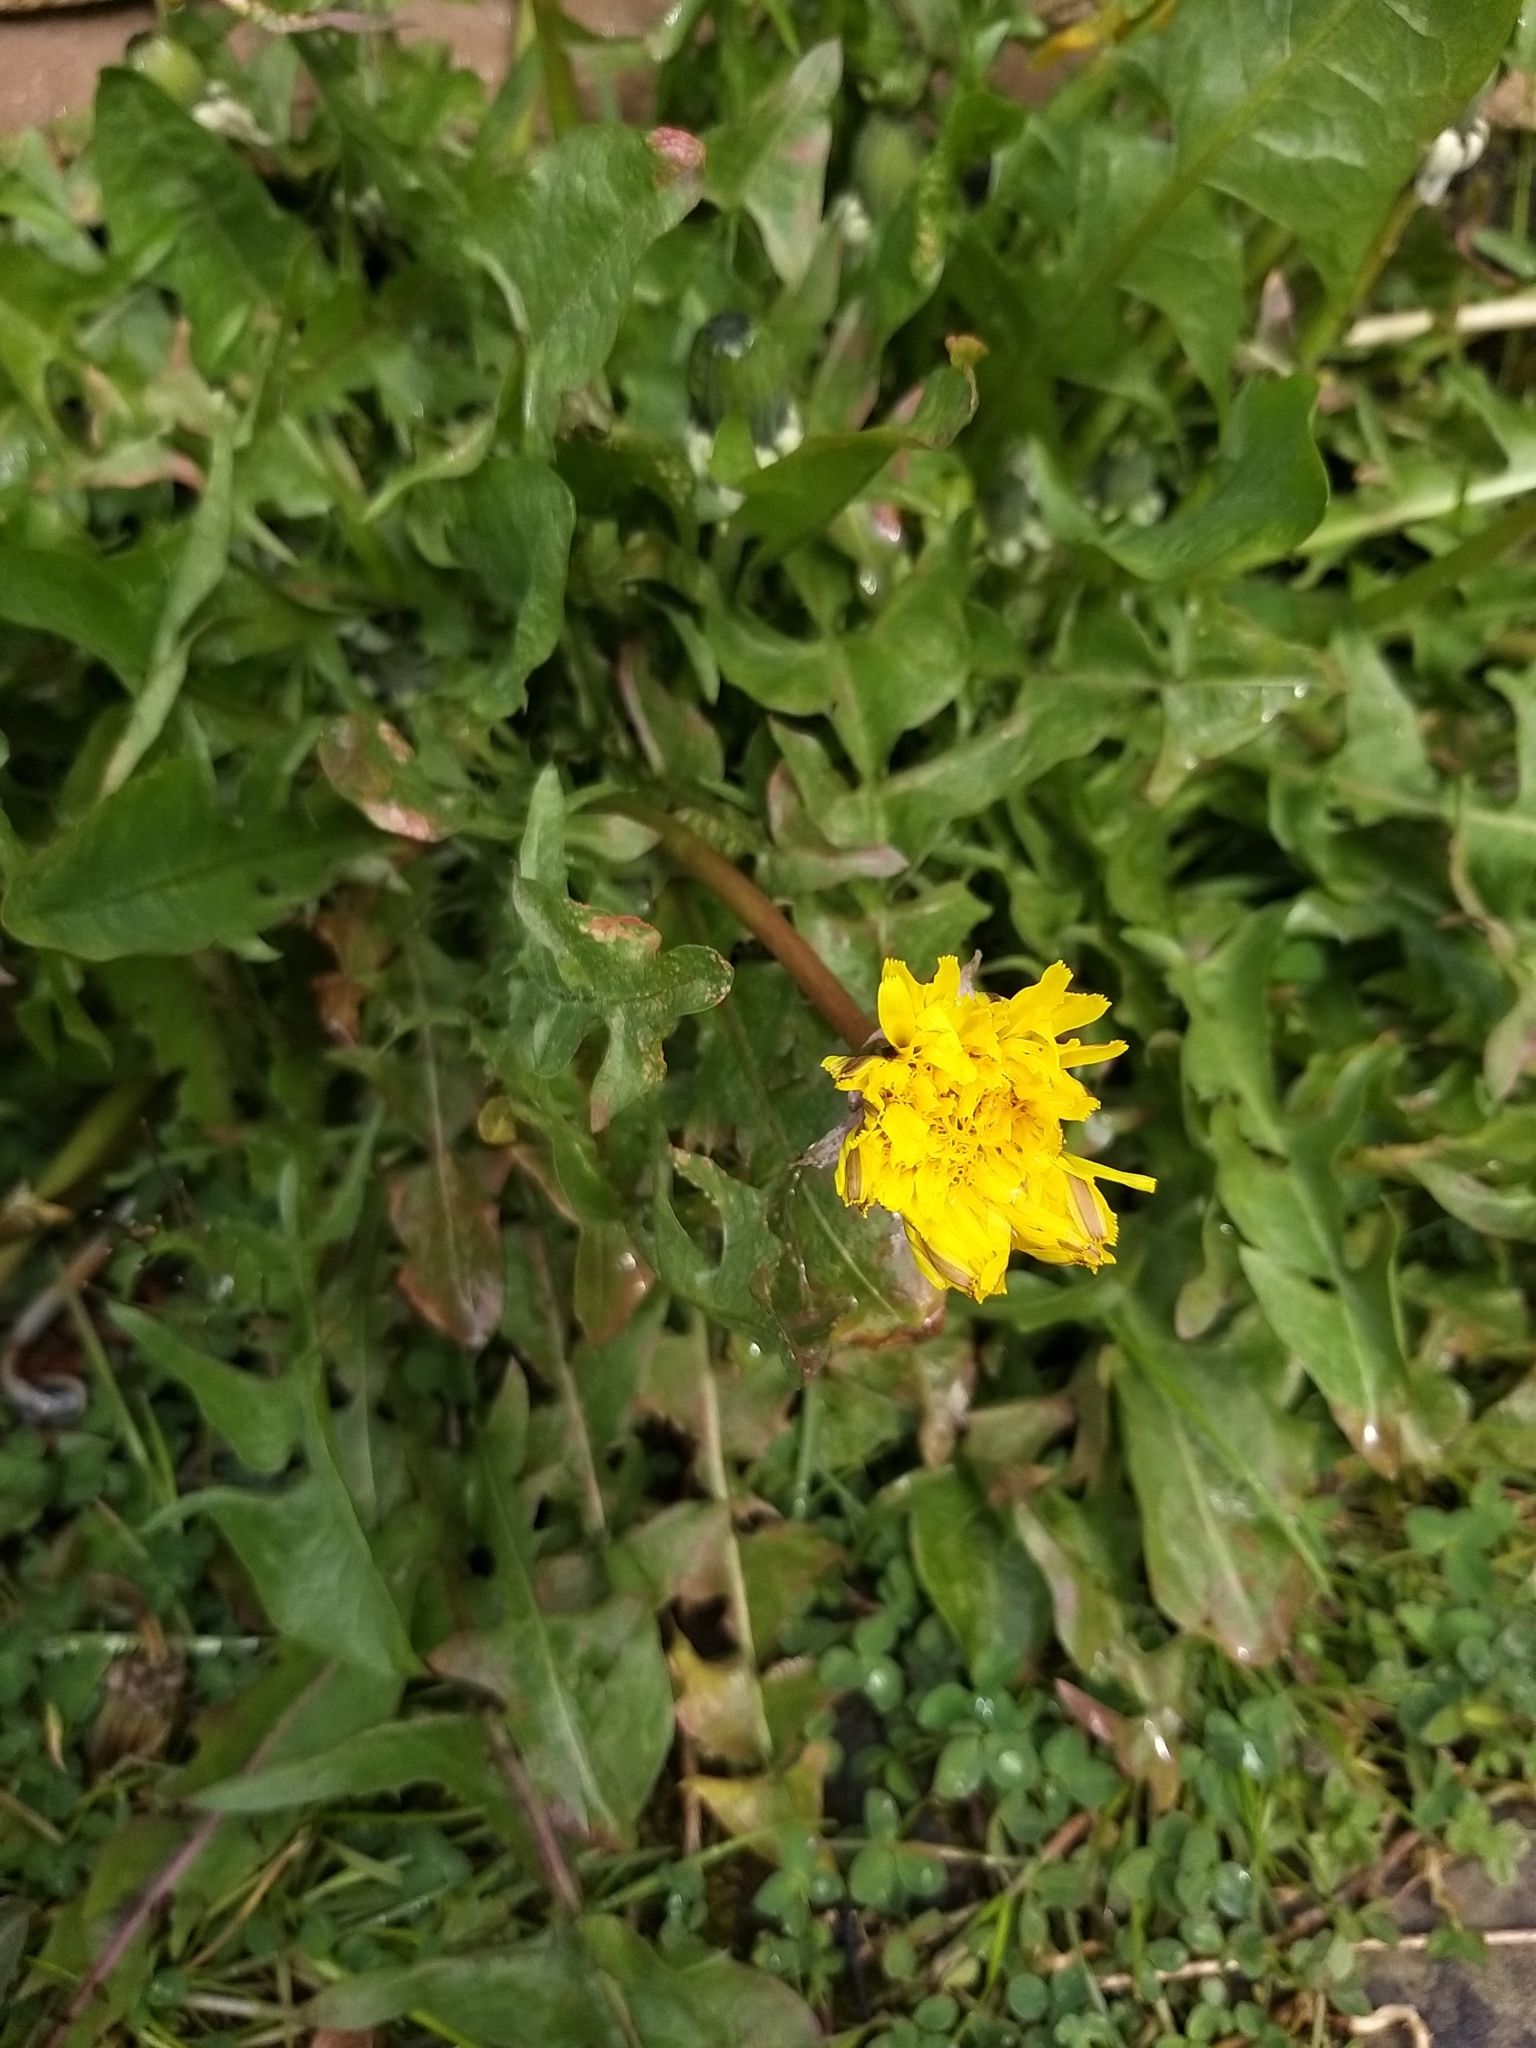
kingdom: Plantae
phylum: Tracheophyta
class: Magnoliopsida
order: Asterales
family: Asteraceae
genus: Taraxacum
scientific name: Taraxacum officinale
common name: Common dandelion
